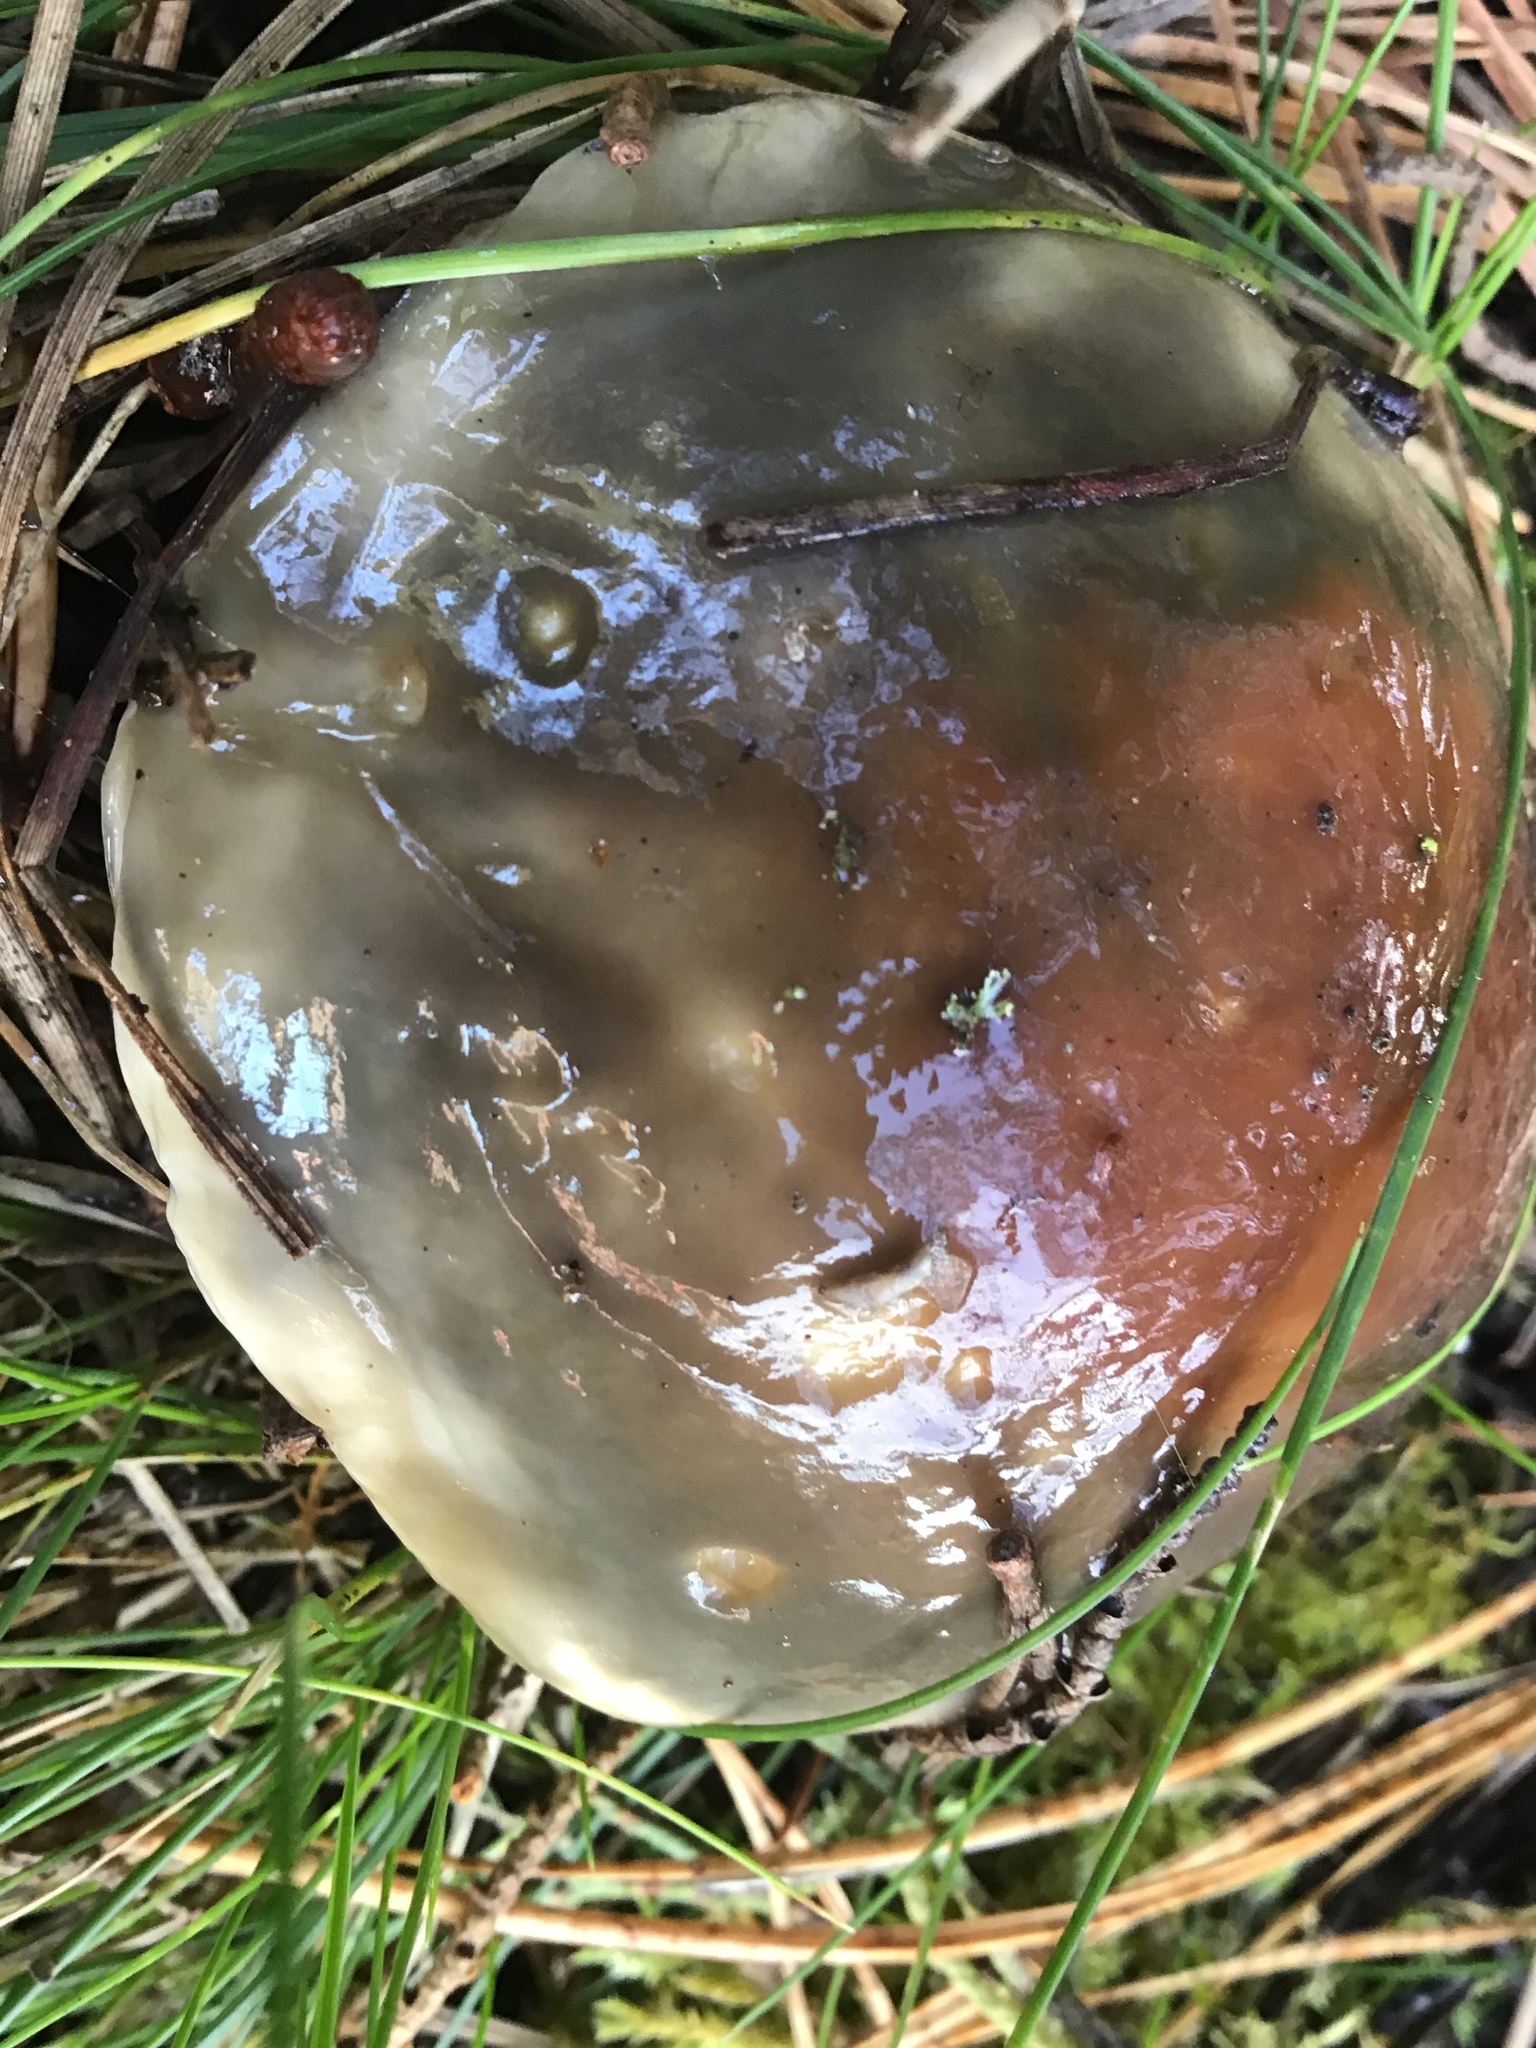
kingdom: Fungi
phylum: Basidiomycota
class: Agaricomycetes
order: Boletales
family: Suillaceae
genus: Suillus
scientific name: Suillus pungens
